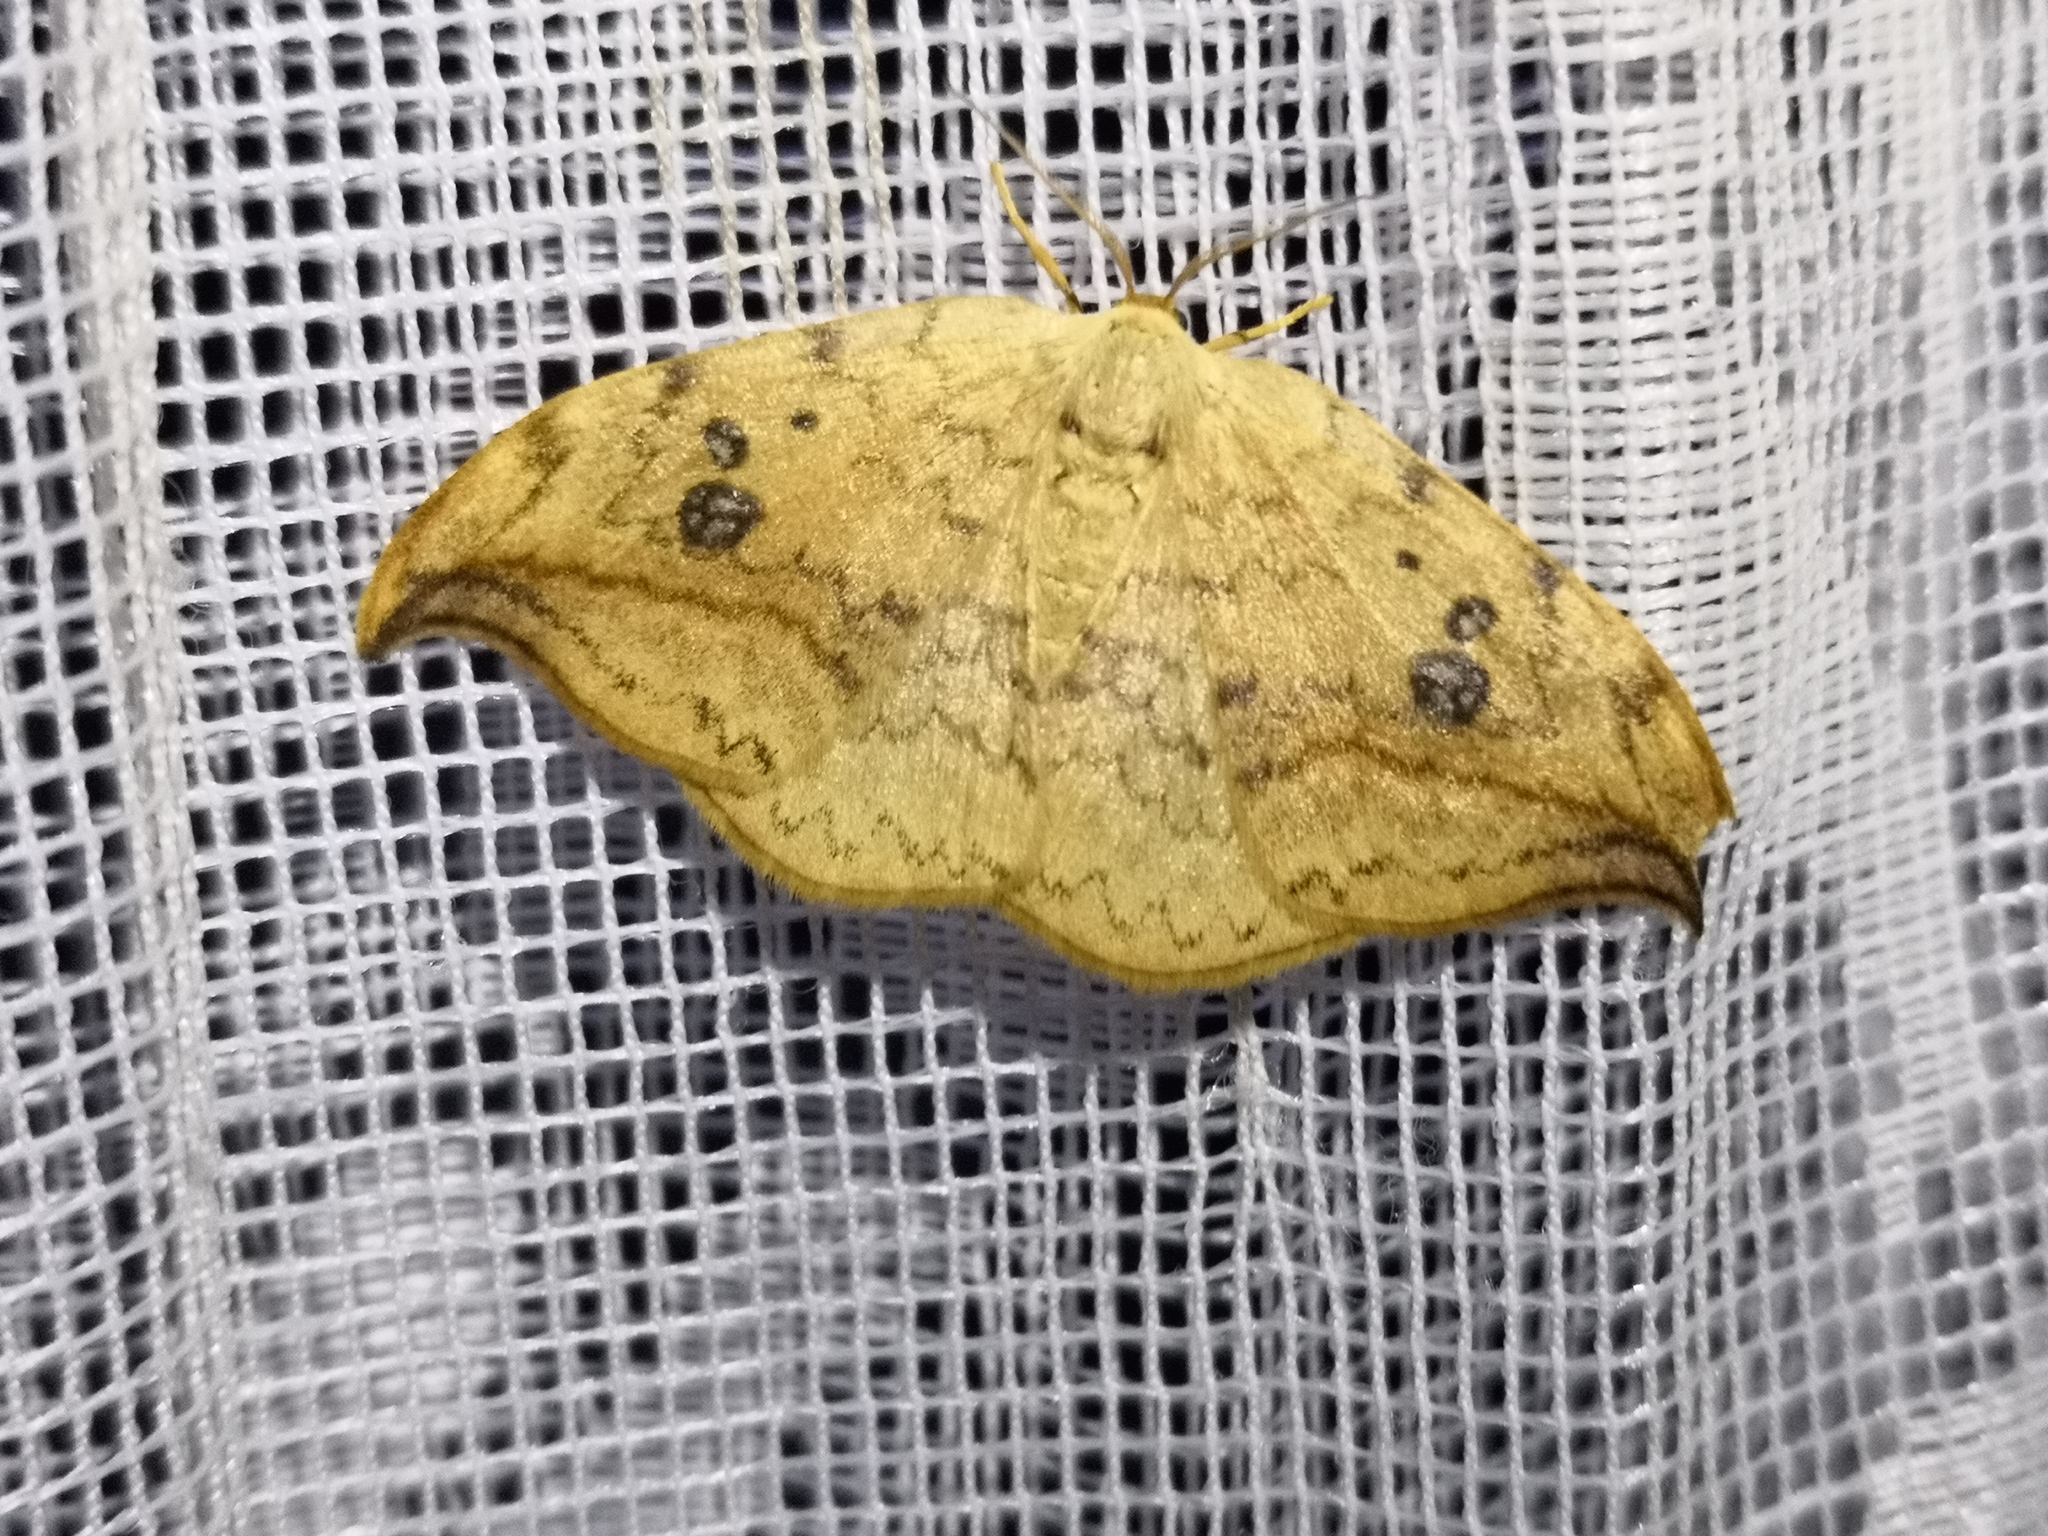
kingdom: Animalia
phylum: Arthropoda
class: Insecta
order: Lepidoptera
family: Drepanidae
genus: Drepana
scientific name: Drepana falcataria
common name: Pebble hook-tip
